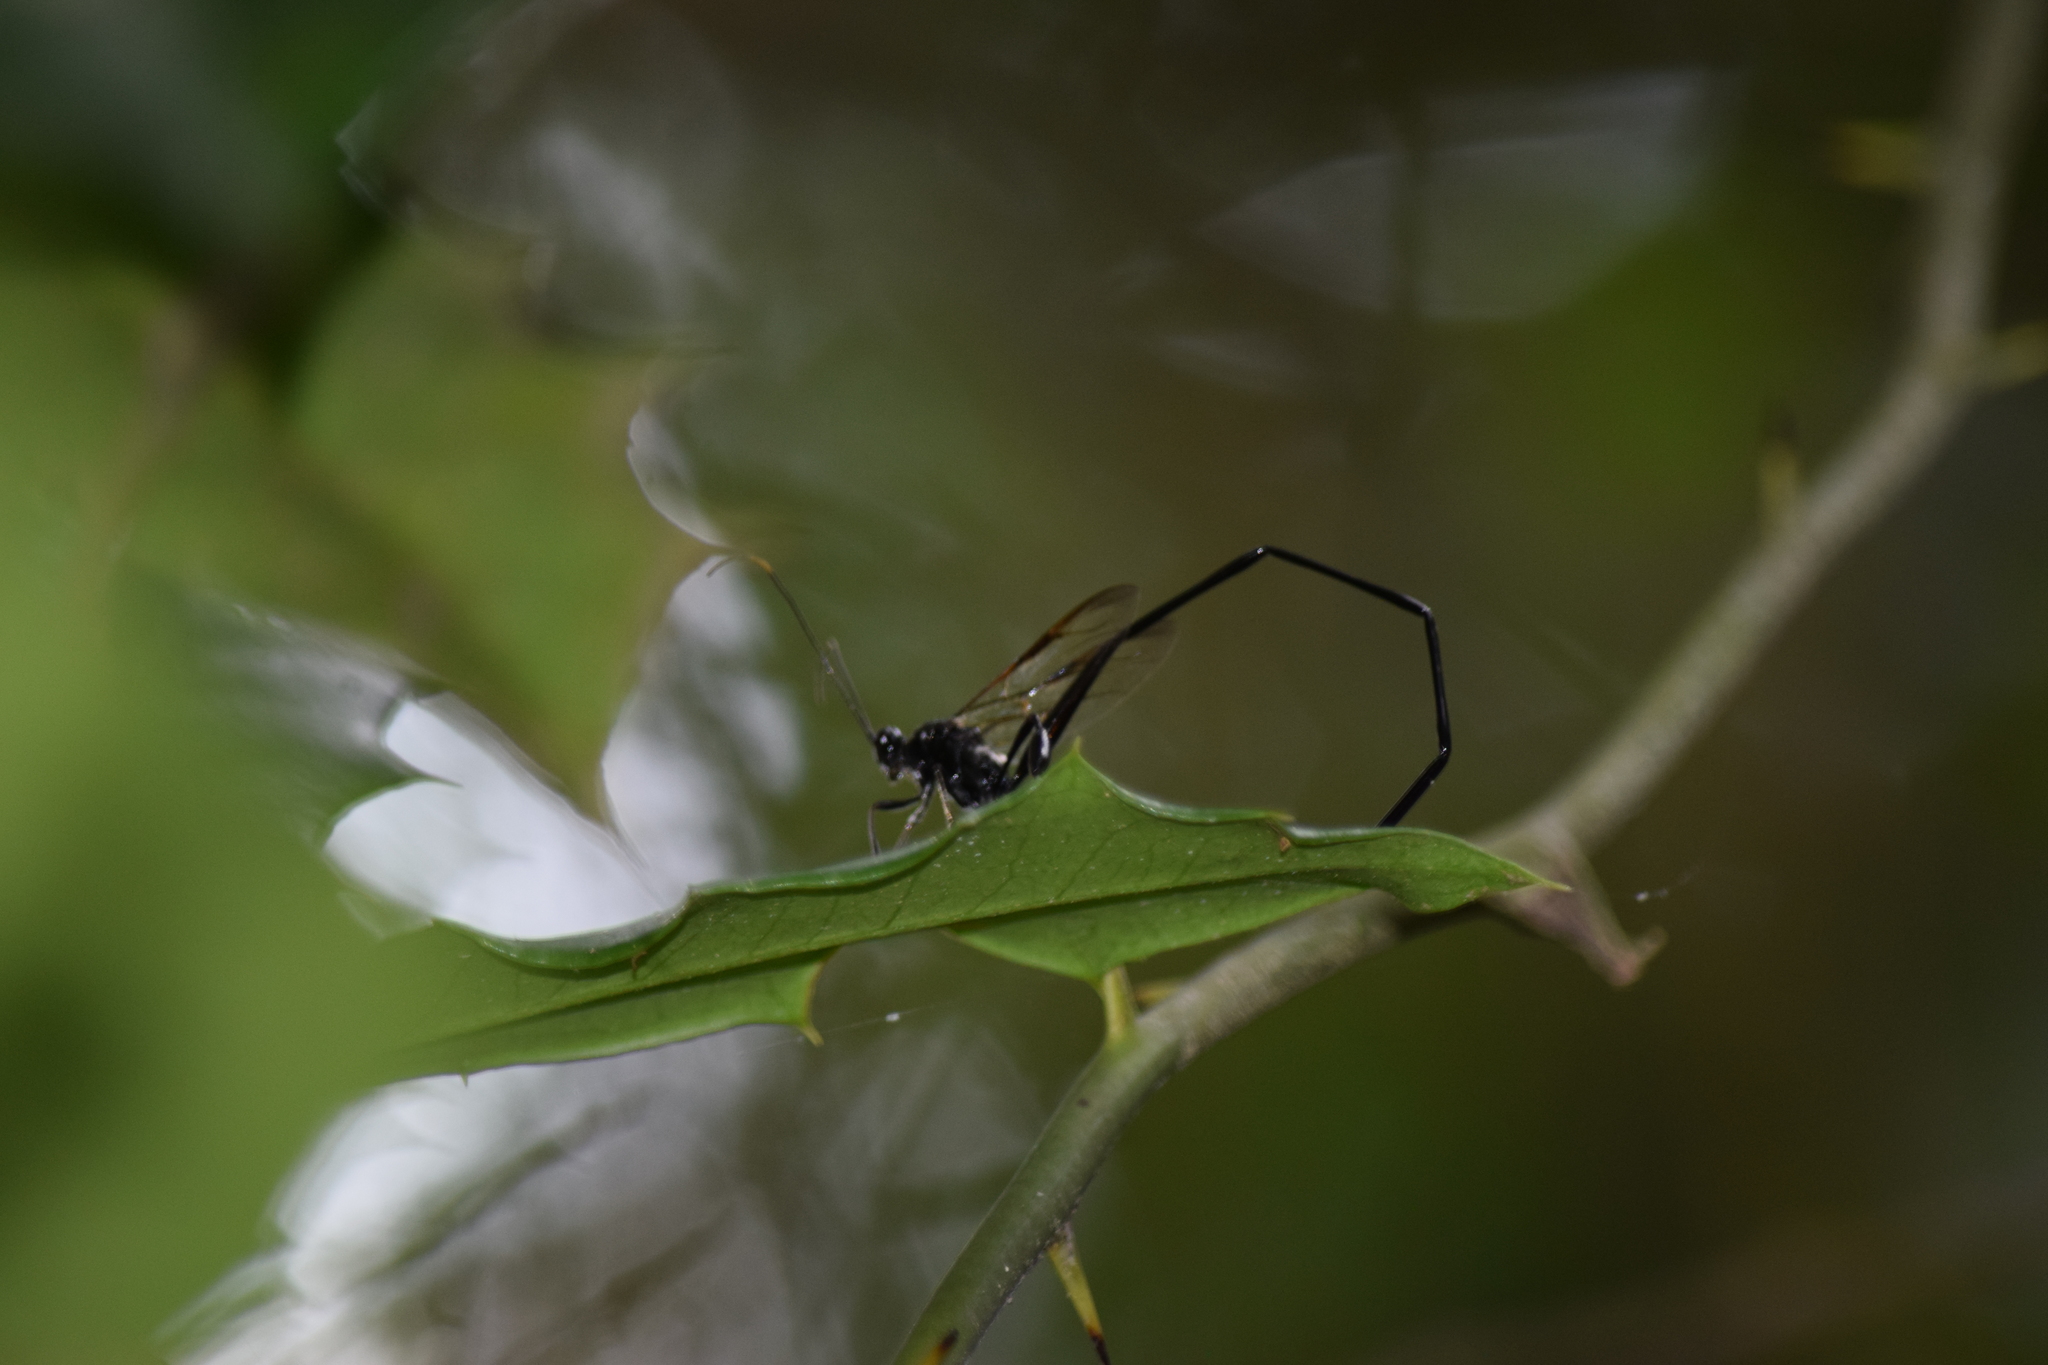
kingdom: Animalia
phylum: Arthropoda
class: Insecta
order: Hymenoptera
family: Pelecinidae
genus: Pelecinus
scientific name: Pelecinus polyturator
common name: American pelecinid wasp
